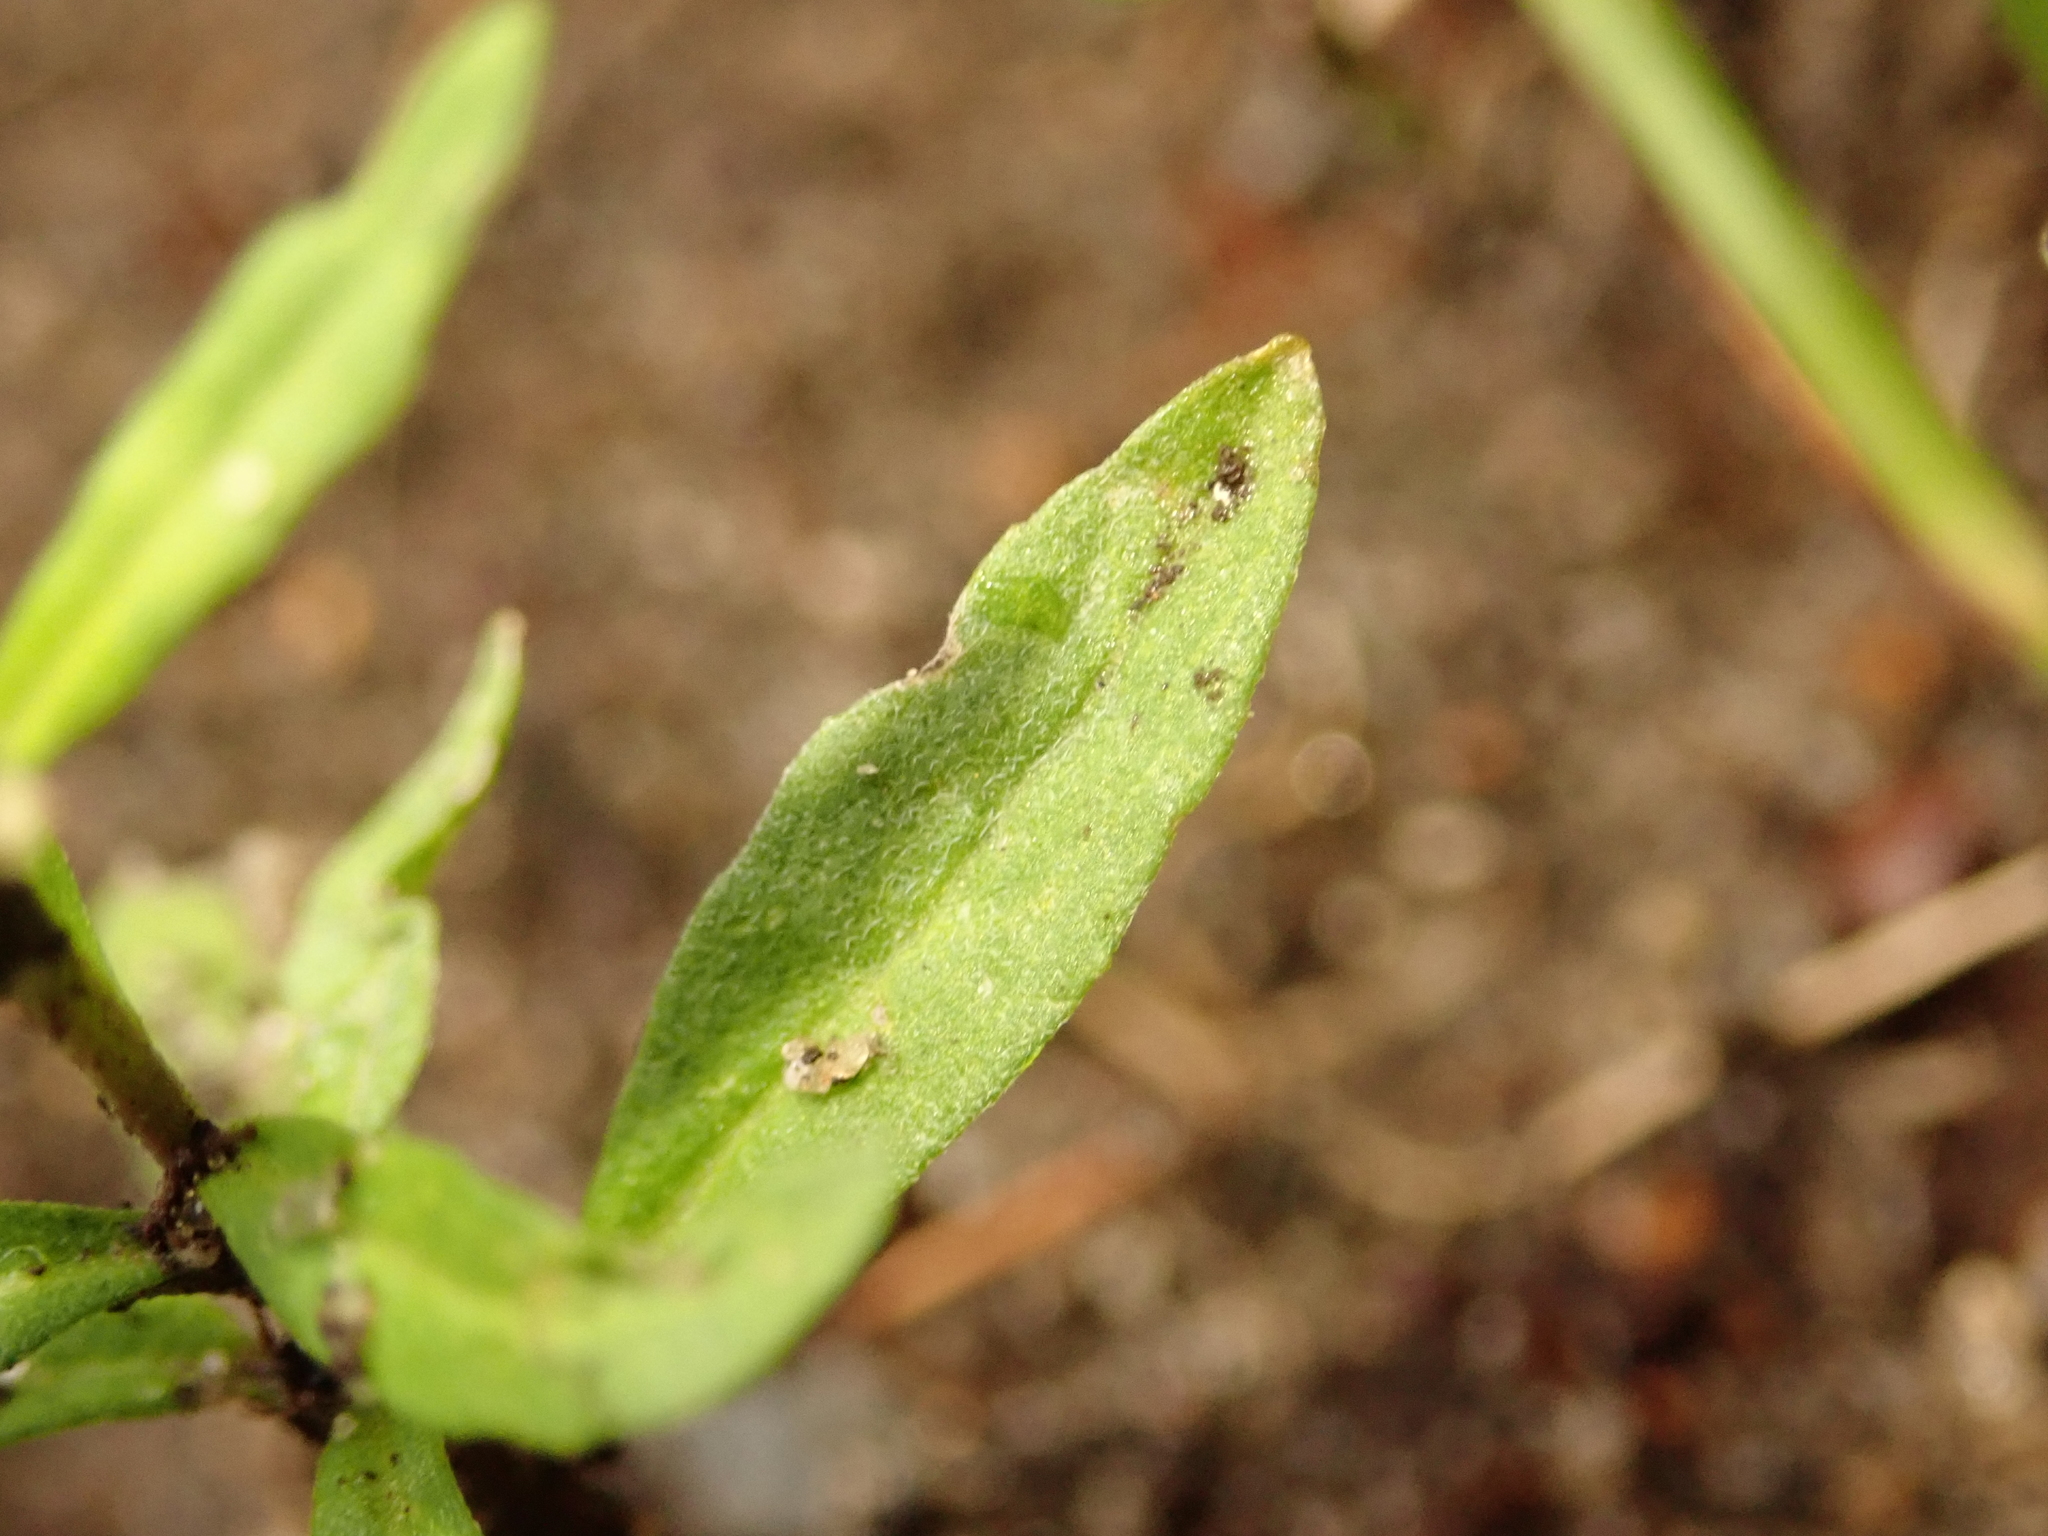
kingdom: Plantae
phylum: Tracheophyta
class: Magnoliopsida
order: Brassicales
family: Brassicaceae
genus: Erysimum
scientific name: Erysimum cheiranthoides
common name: Treacle mustard
